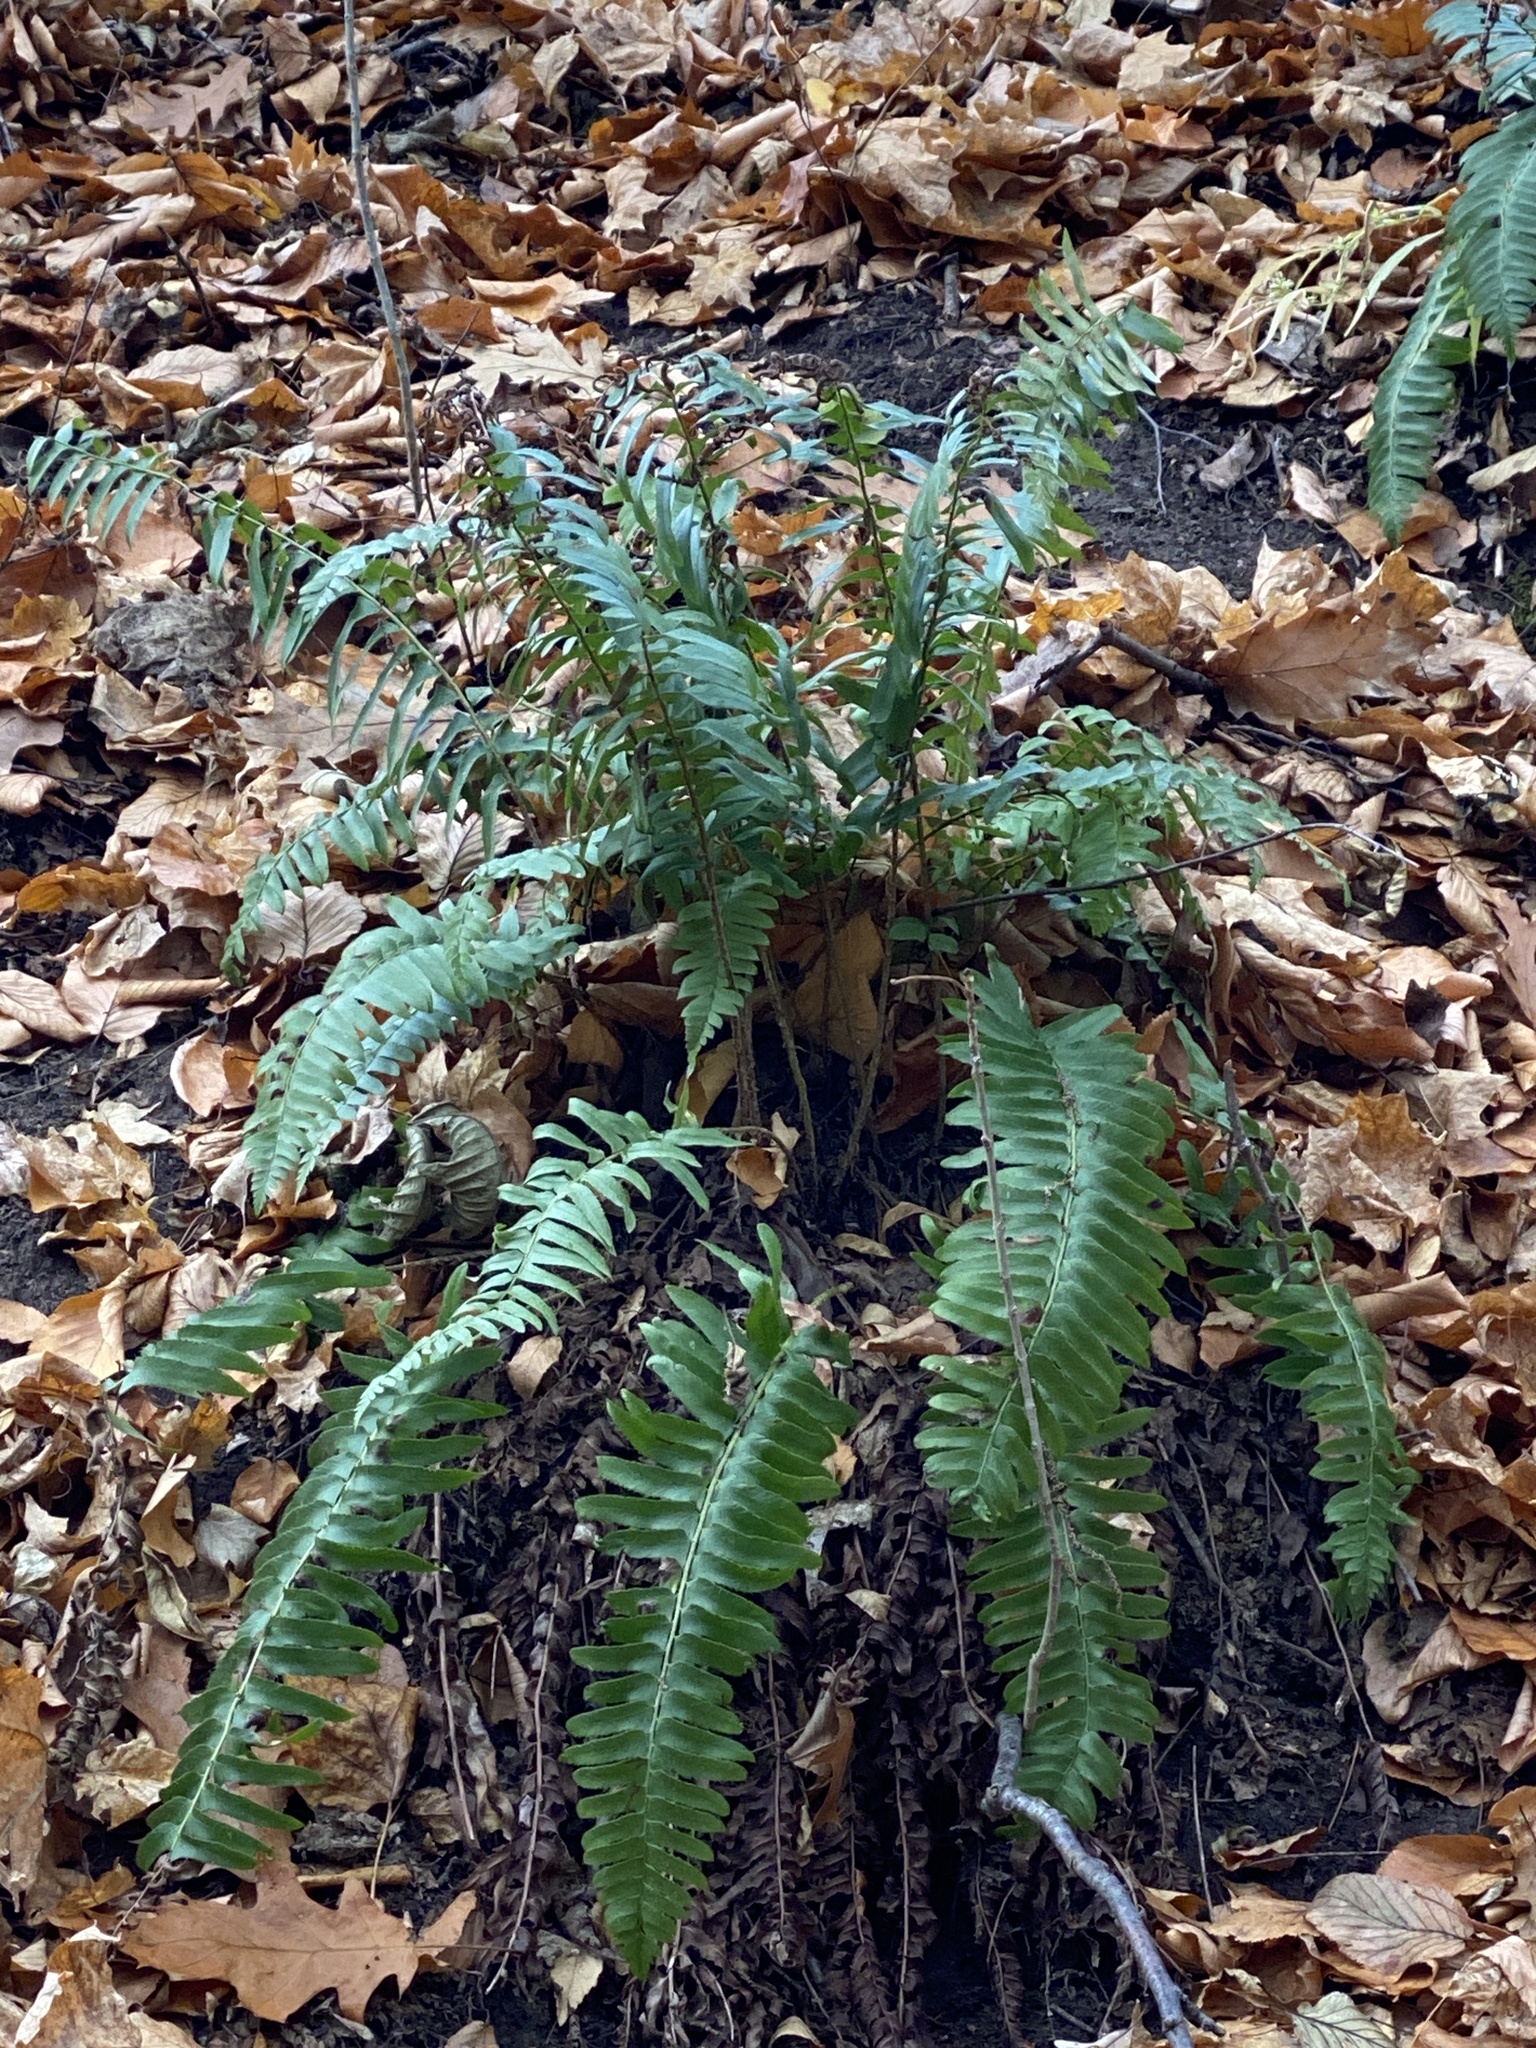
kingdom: Plantae
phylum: Tracheophyta
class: Polypodiopsida
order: Polypodiales
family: Dryopteridaceae
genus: Polystichum
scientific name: Polystichum acrostichoides
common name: Christmas fern
